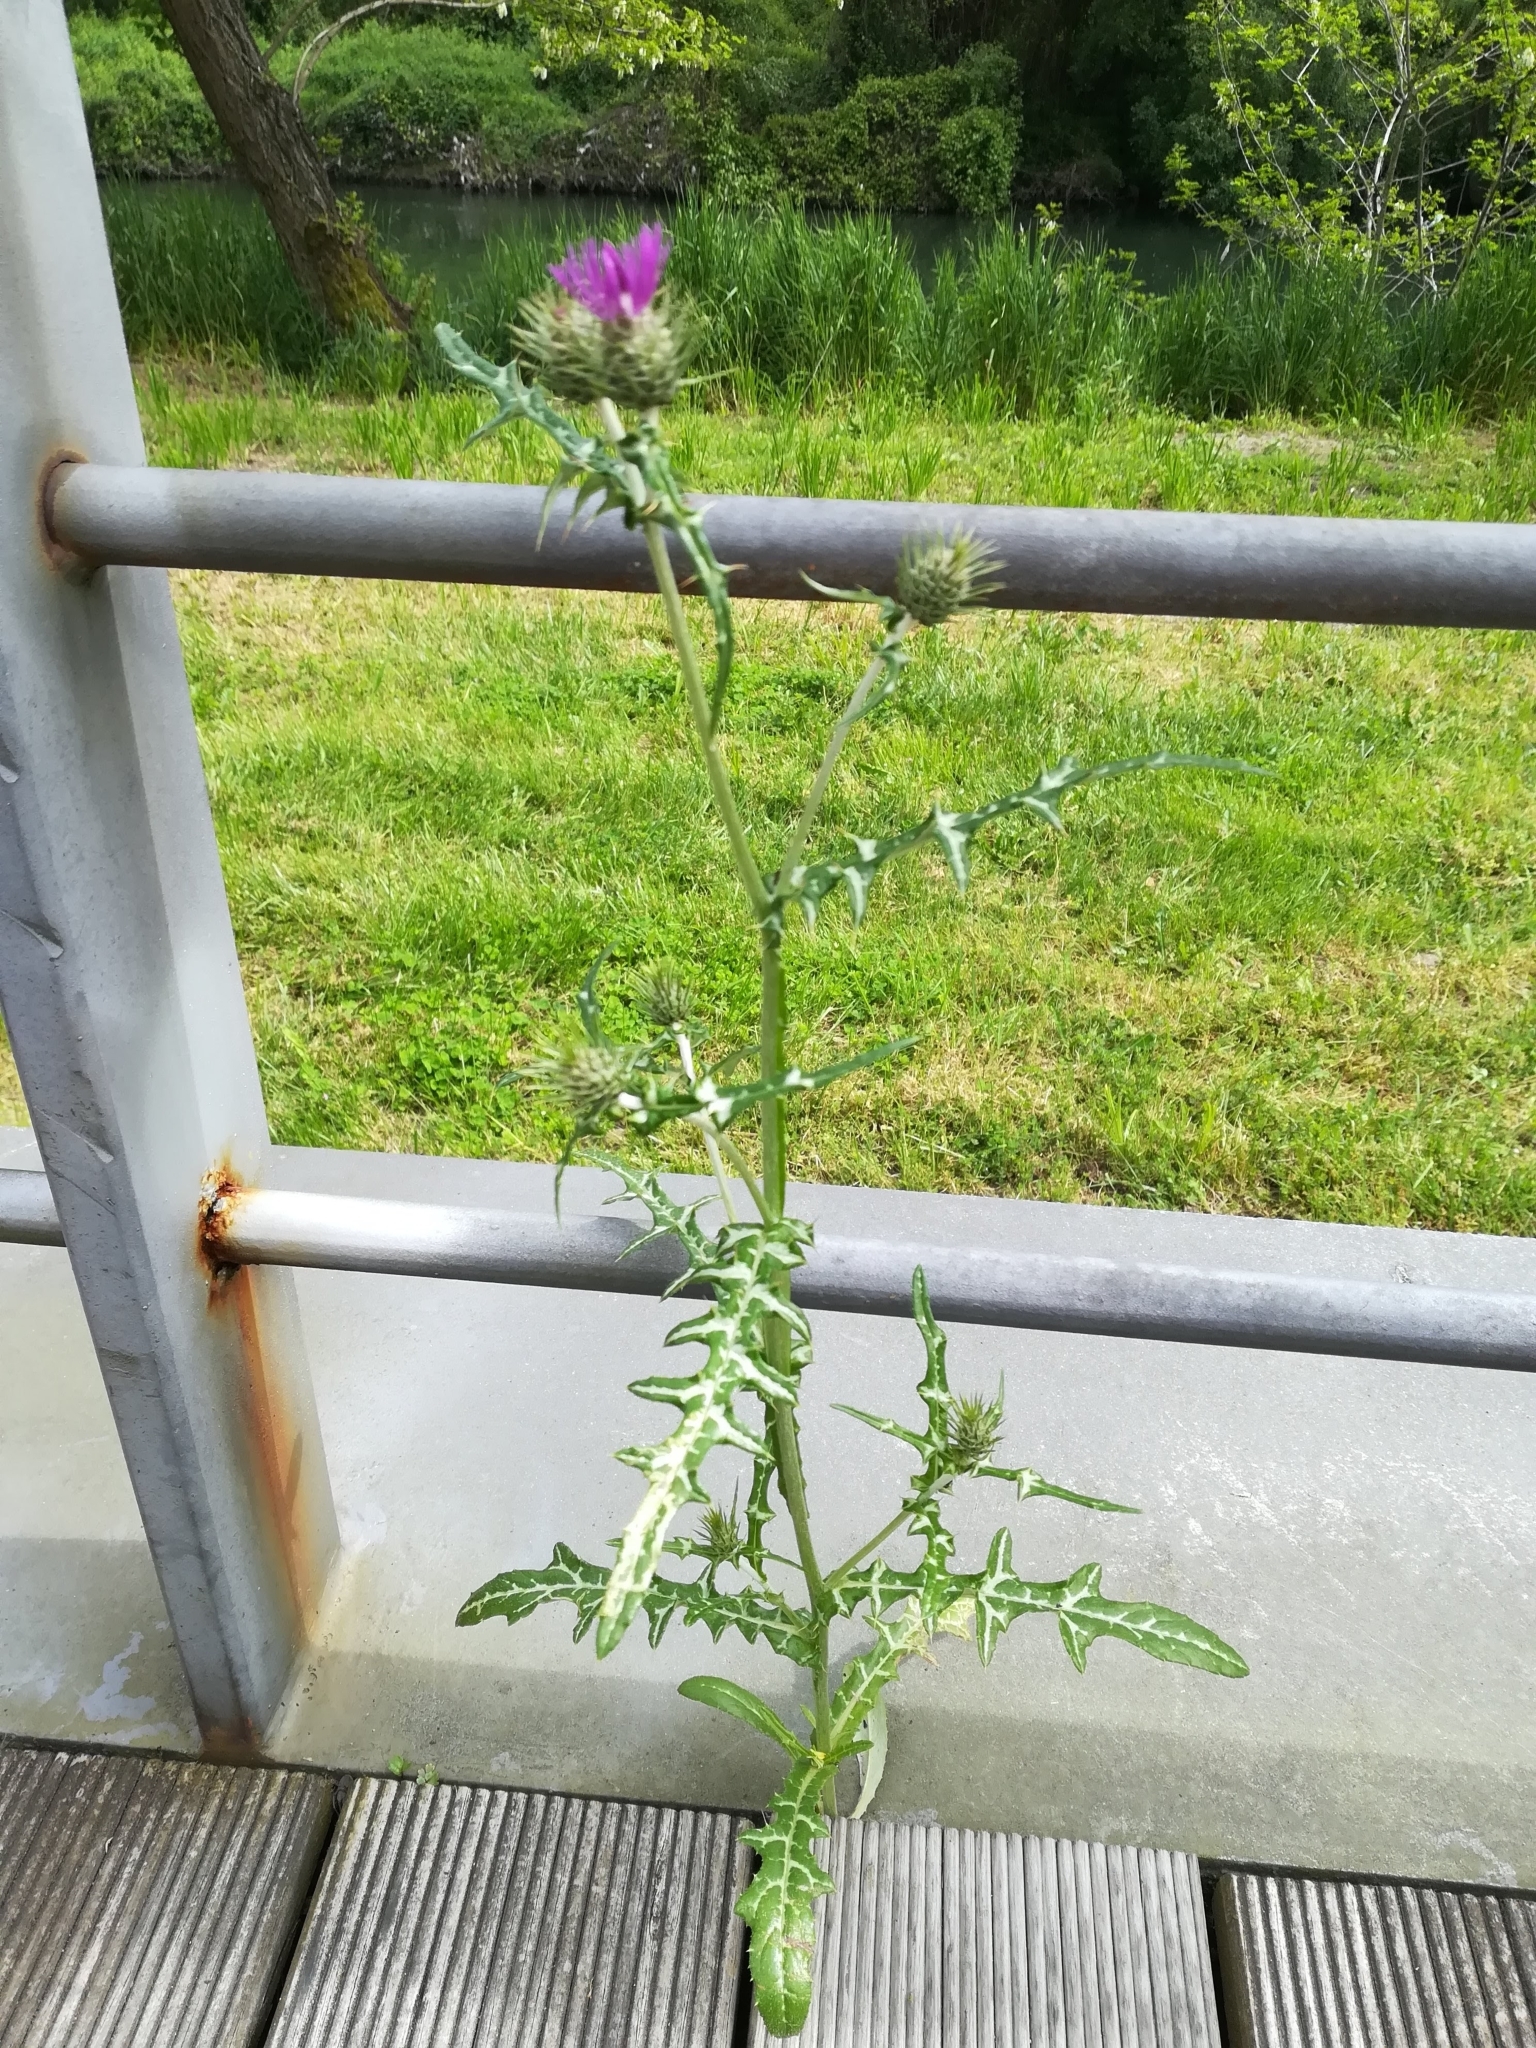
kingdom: Plantae
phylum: Tracheophyta
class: Magnoliopsida
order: Asterales
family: Asteraceae
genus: Galactites
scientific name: Galactites tomentosa
